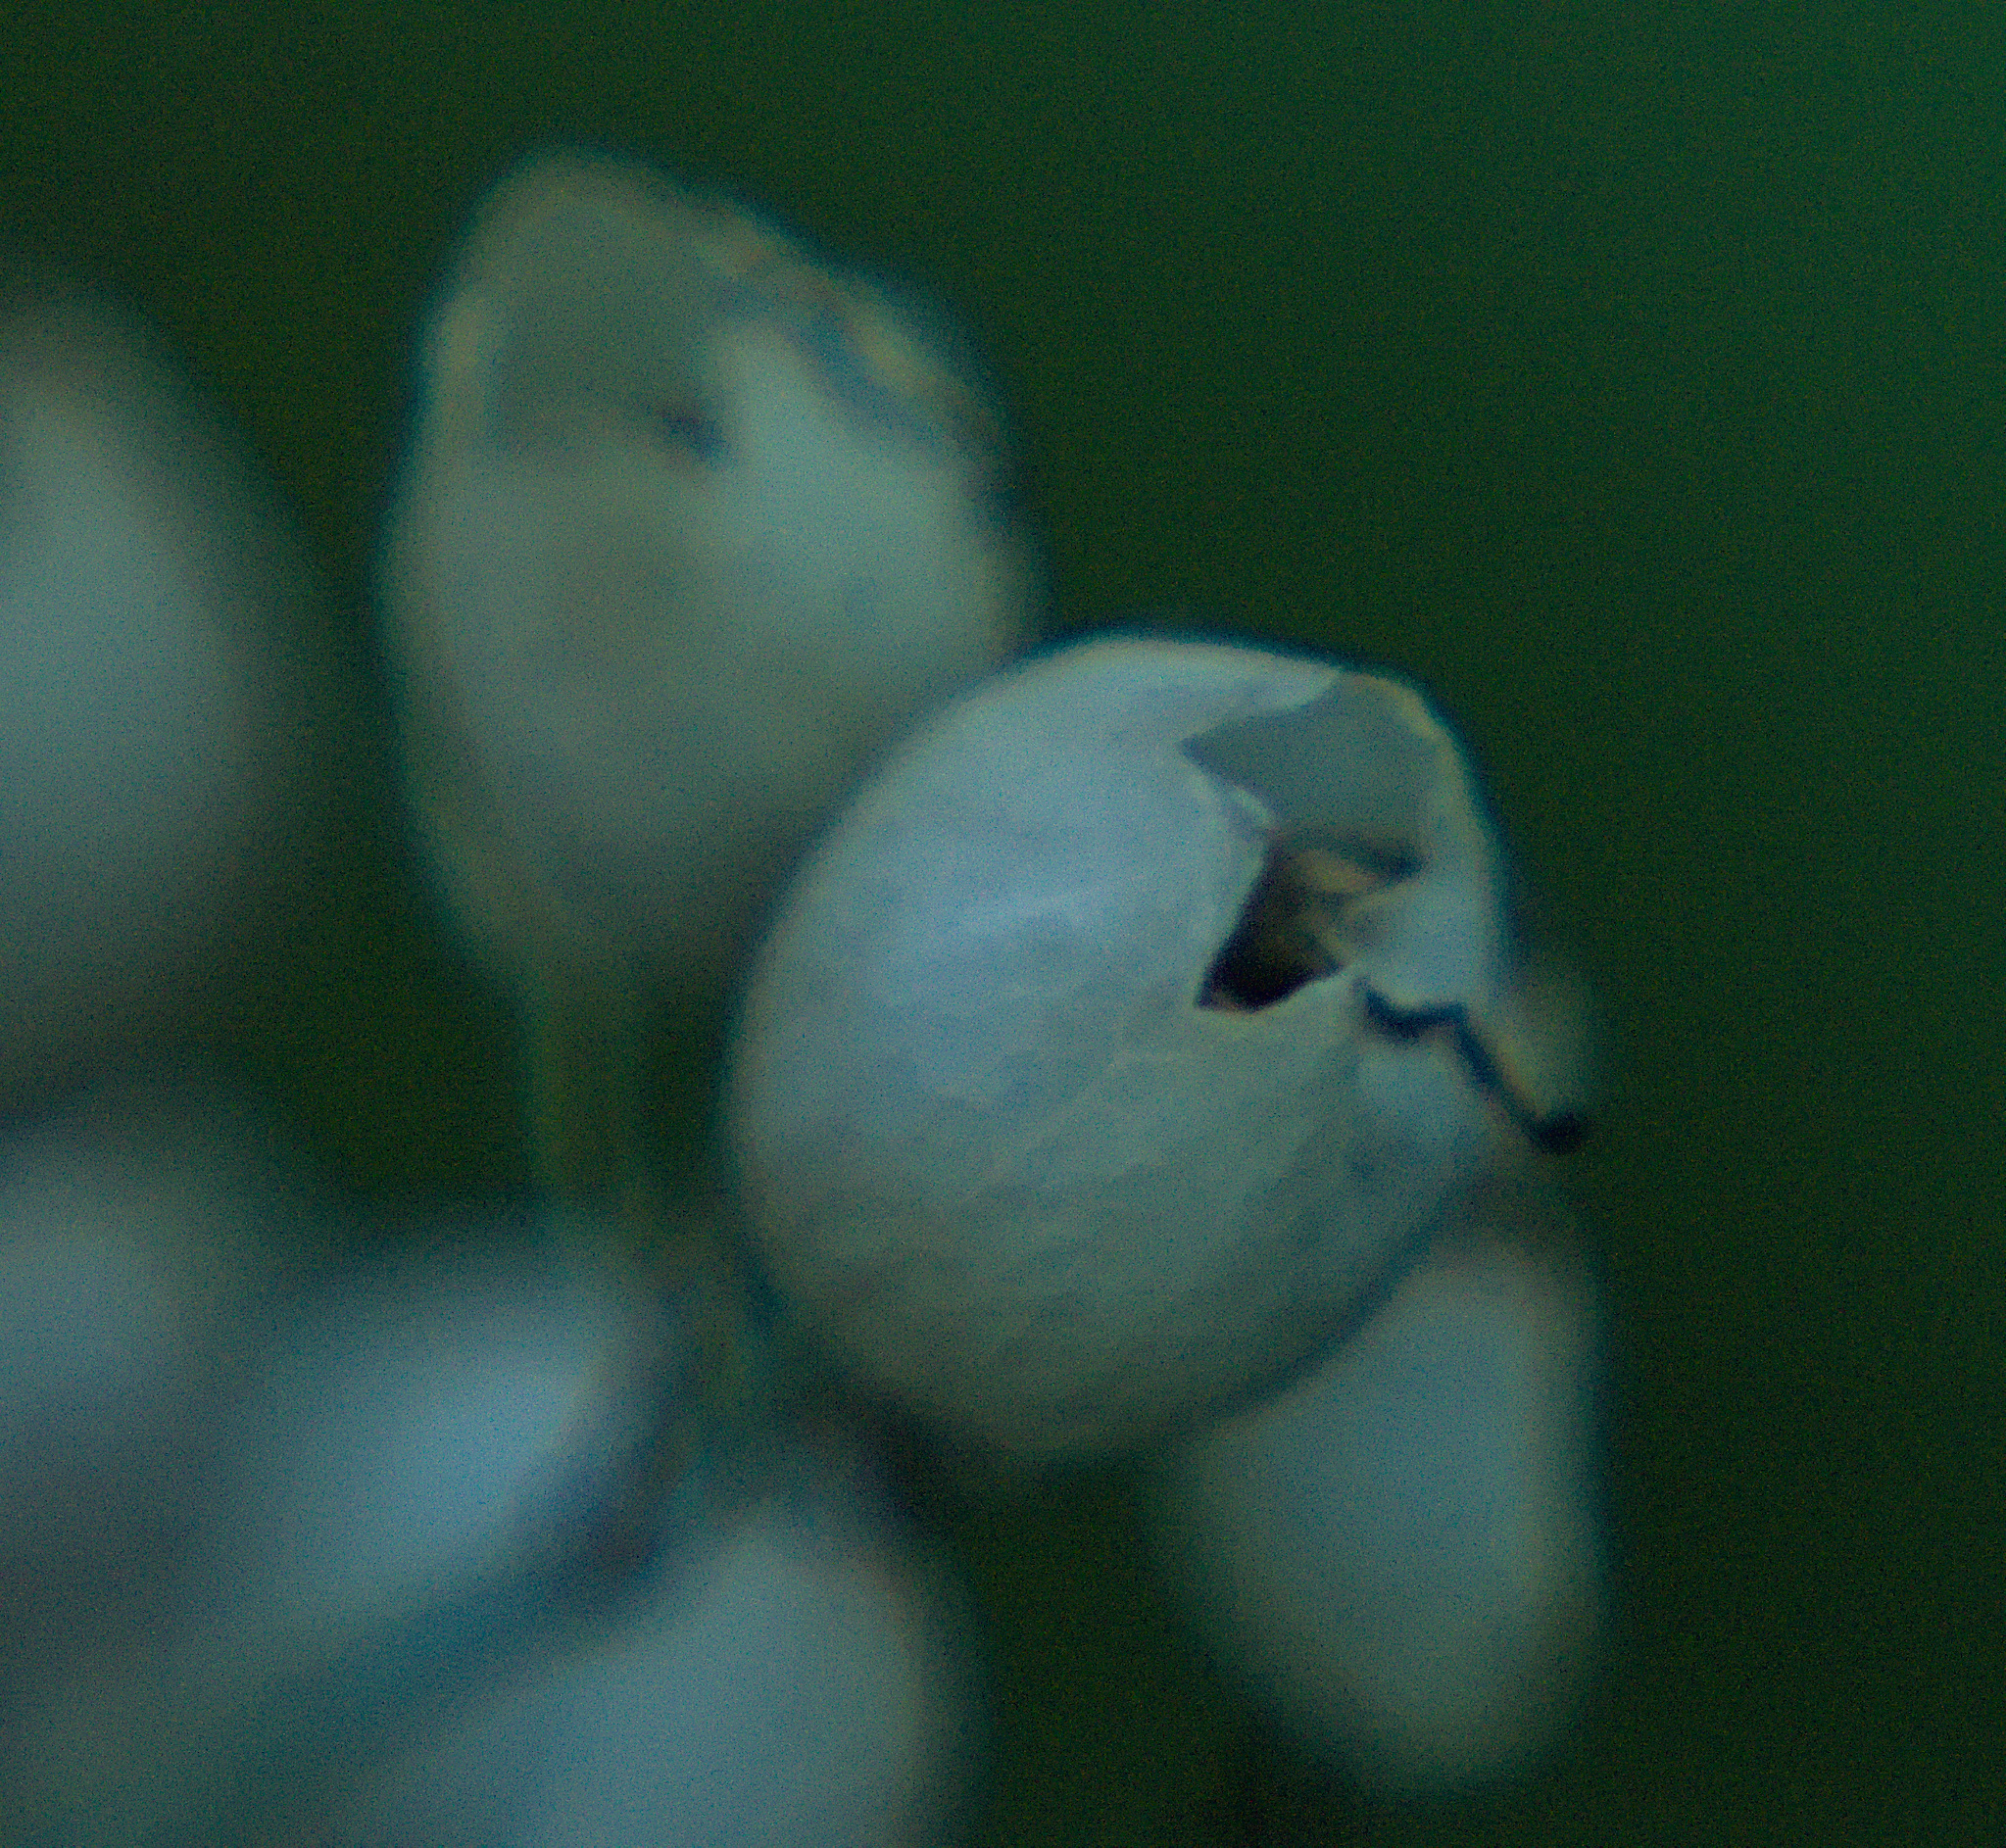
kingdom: Plantae
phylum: Tracheophyta
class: Magnoliopsida
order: Caryophyllales
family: Caryophyllaceae
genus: Silene
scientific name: Silene vulgaris
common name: Bladder campion
